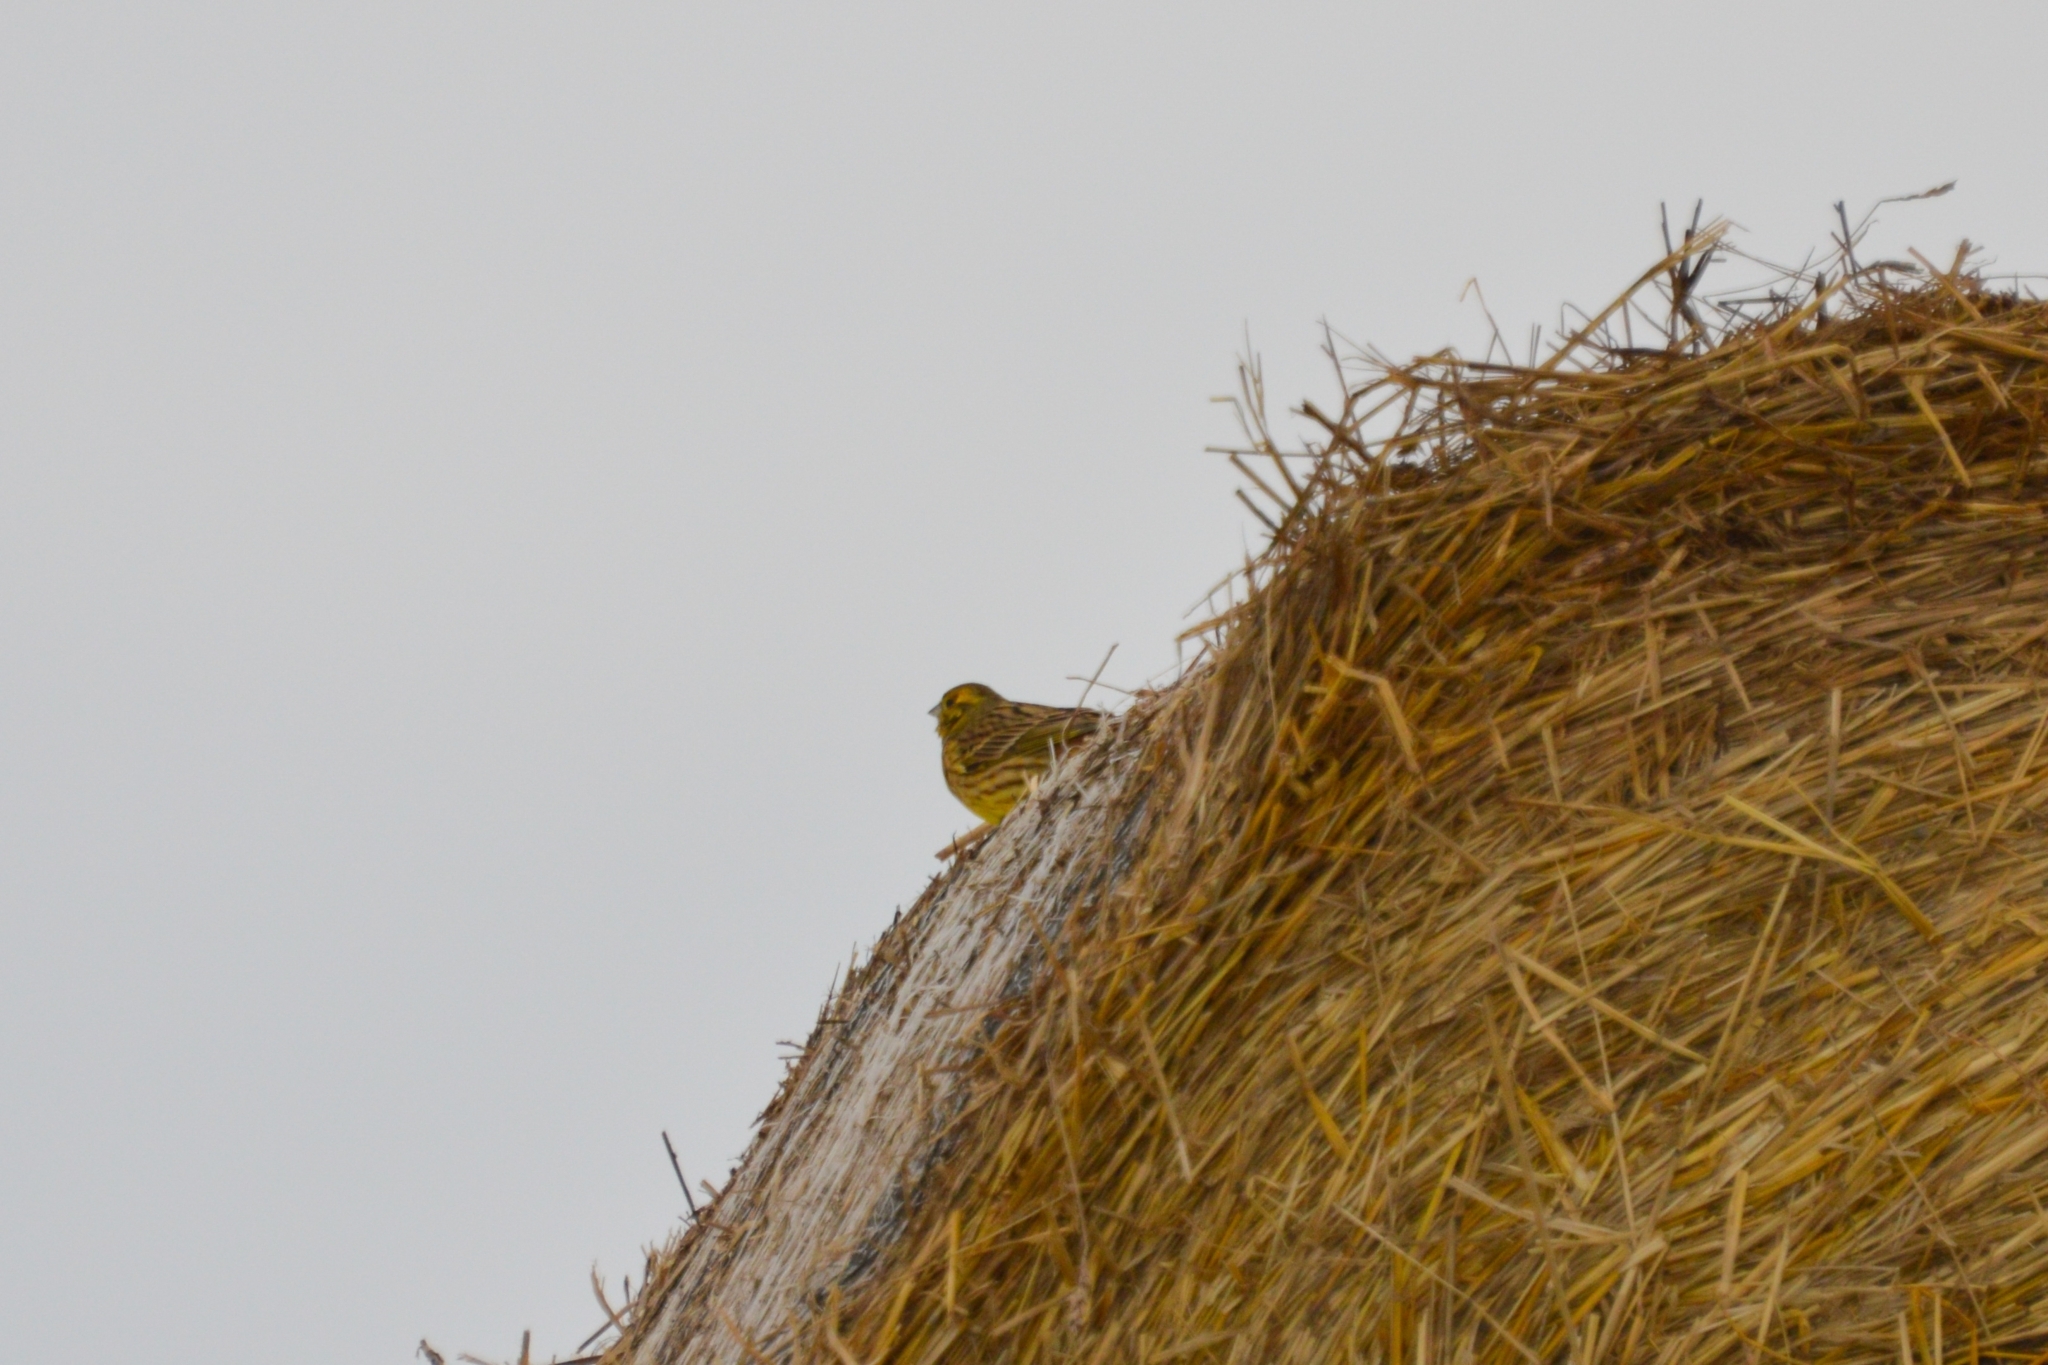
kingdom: Animalia
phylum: Chordata
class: Aves
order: Passeriformes
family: Emberizidae
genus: Emberiza
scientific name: Emberiza citrinella
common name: Yellowhammer
